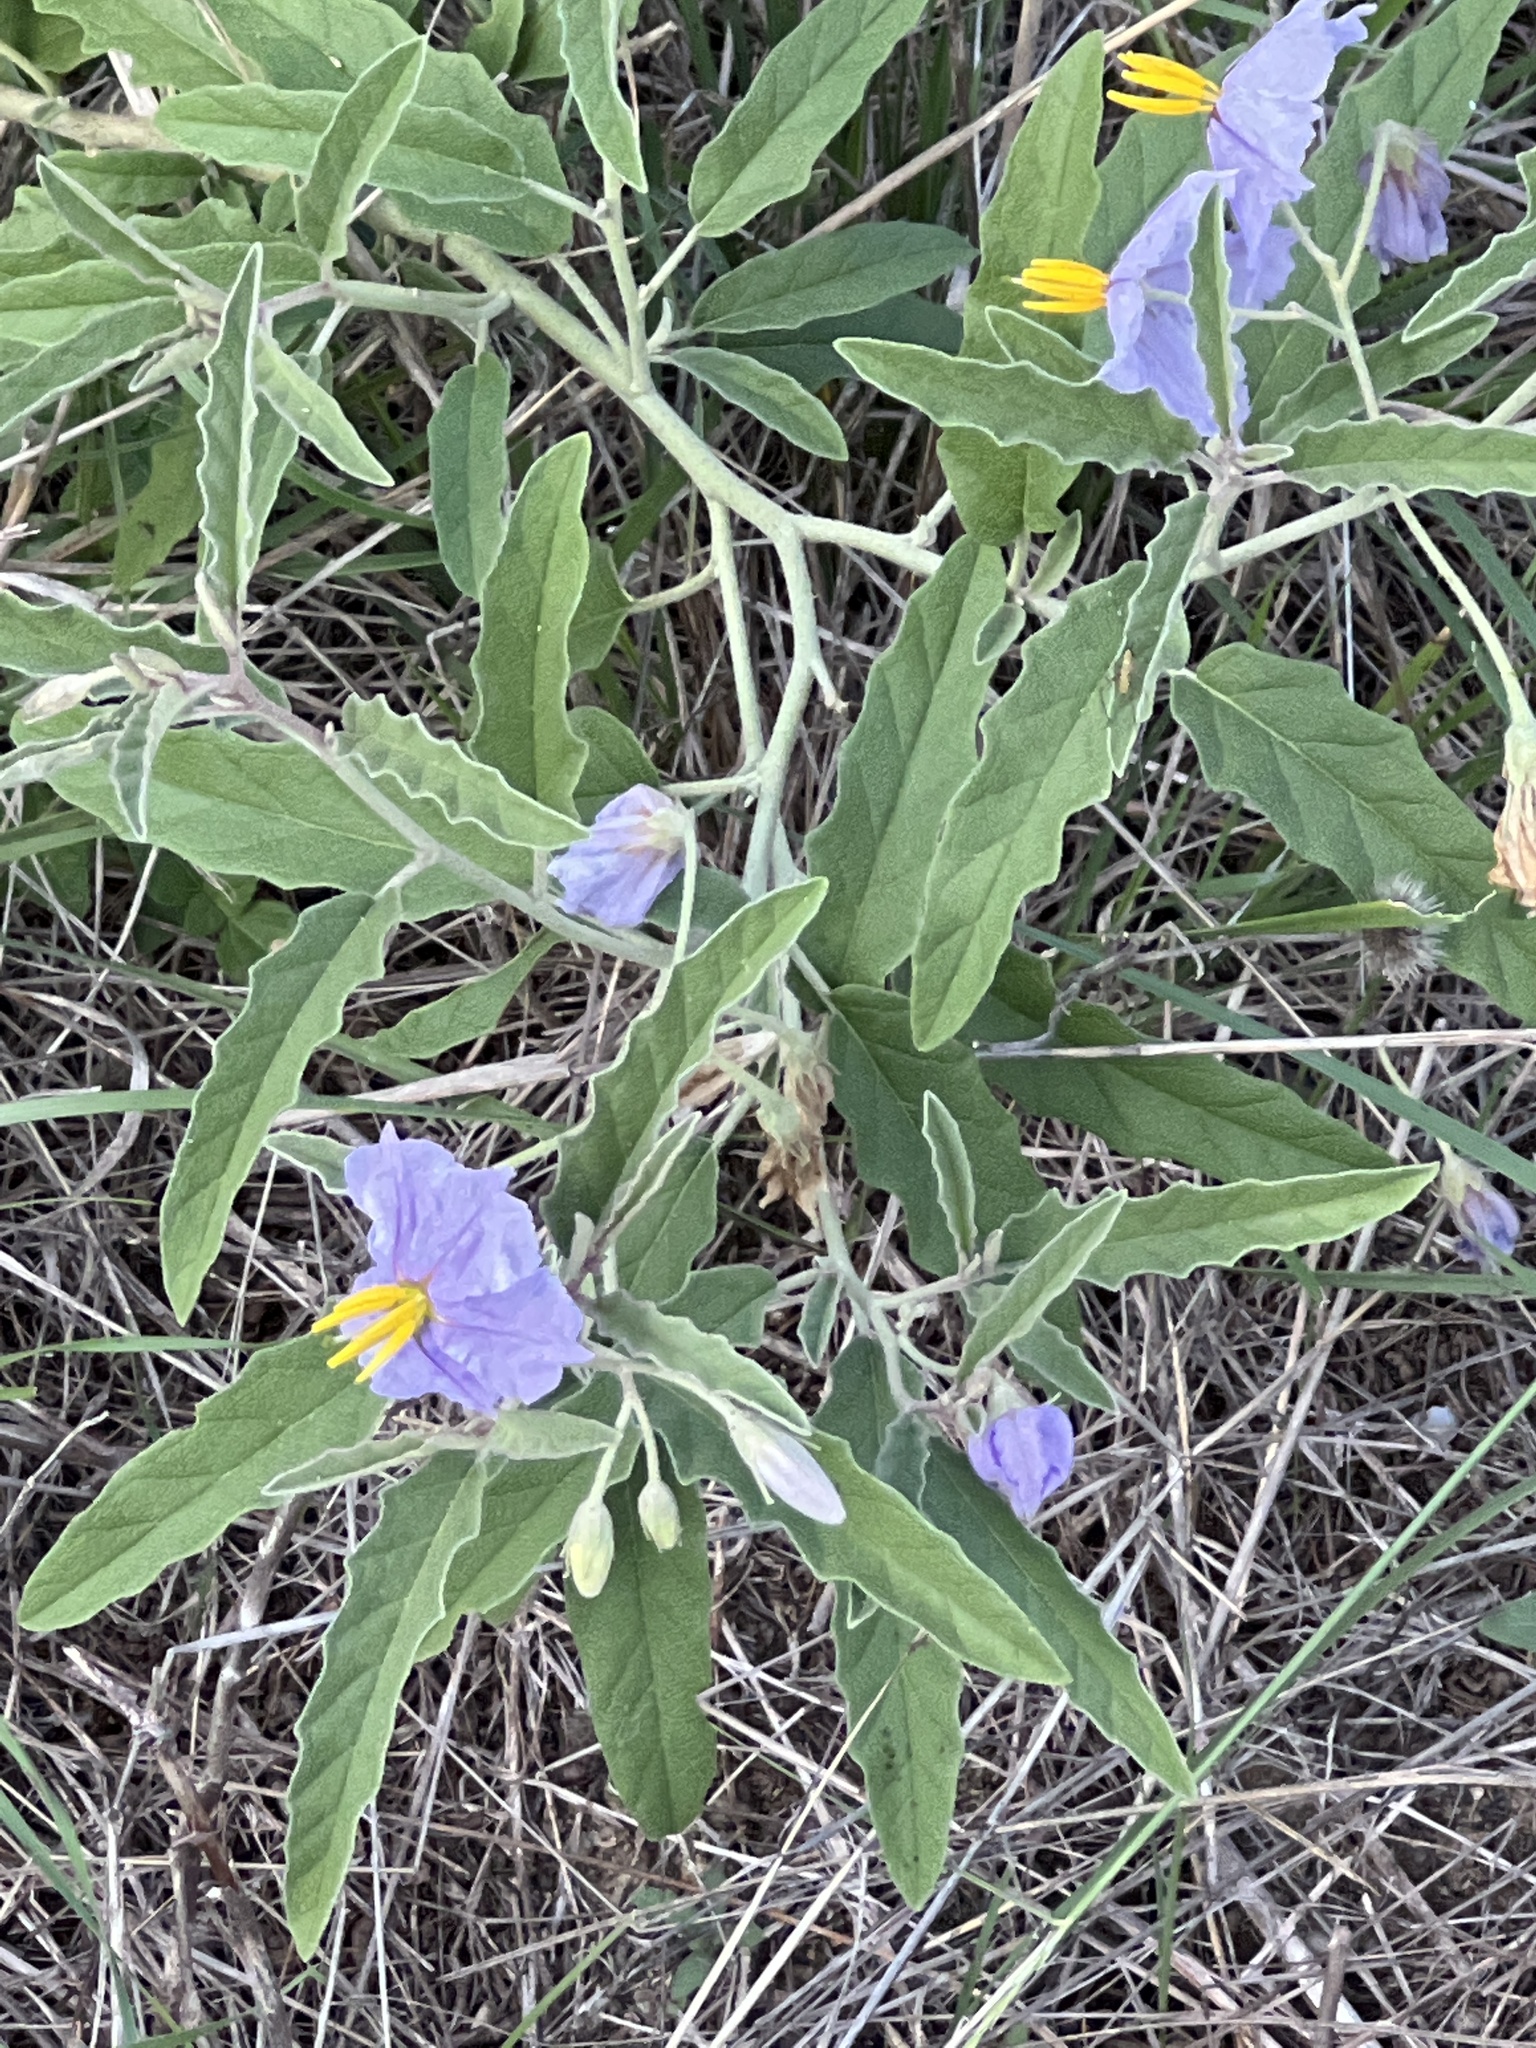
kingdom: Plantae
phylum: Tracheophyta
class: Magnoliopsida
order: Solanales
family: Solanaceae
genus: Solanum
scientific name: Solanum elaeagnifolium
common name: Silverleaf nightshade
